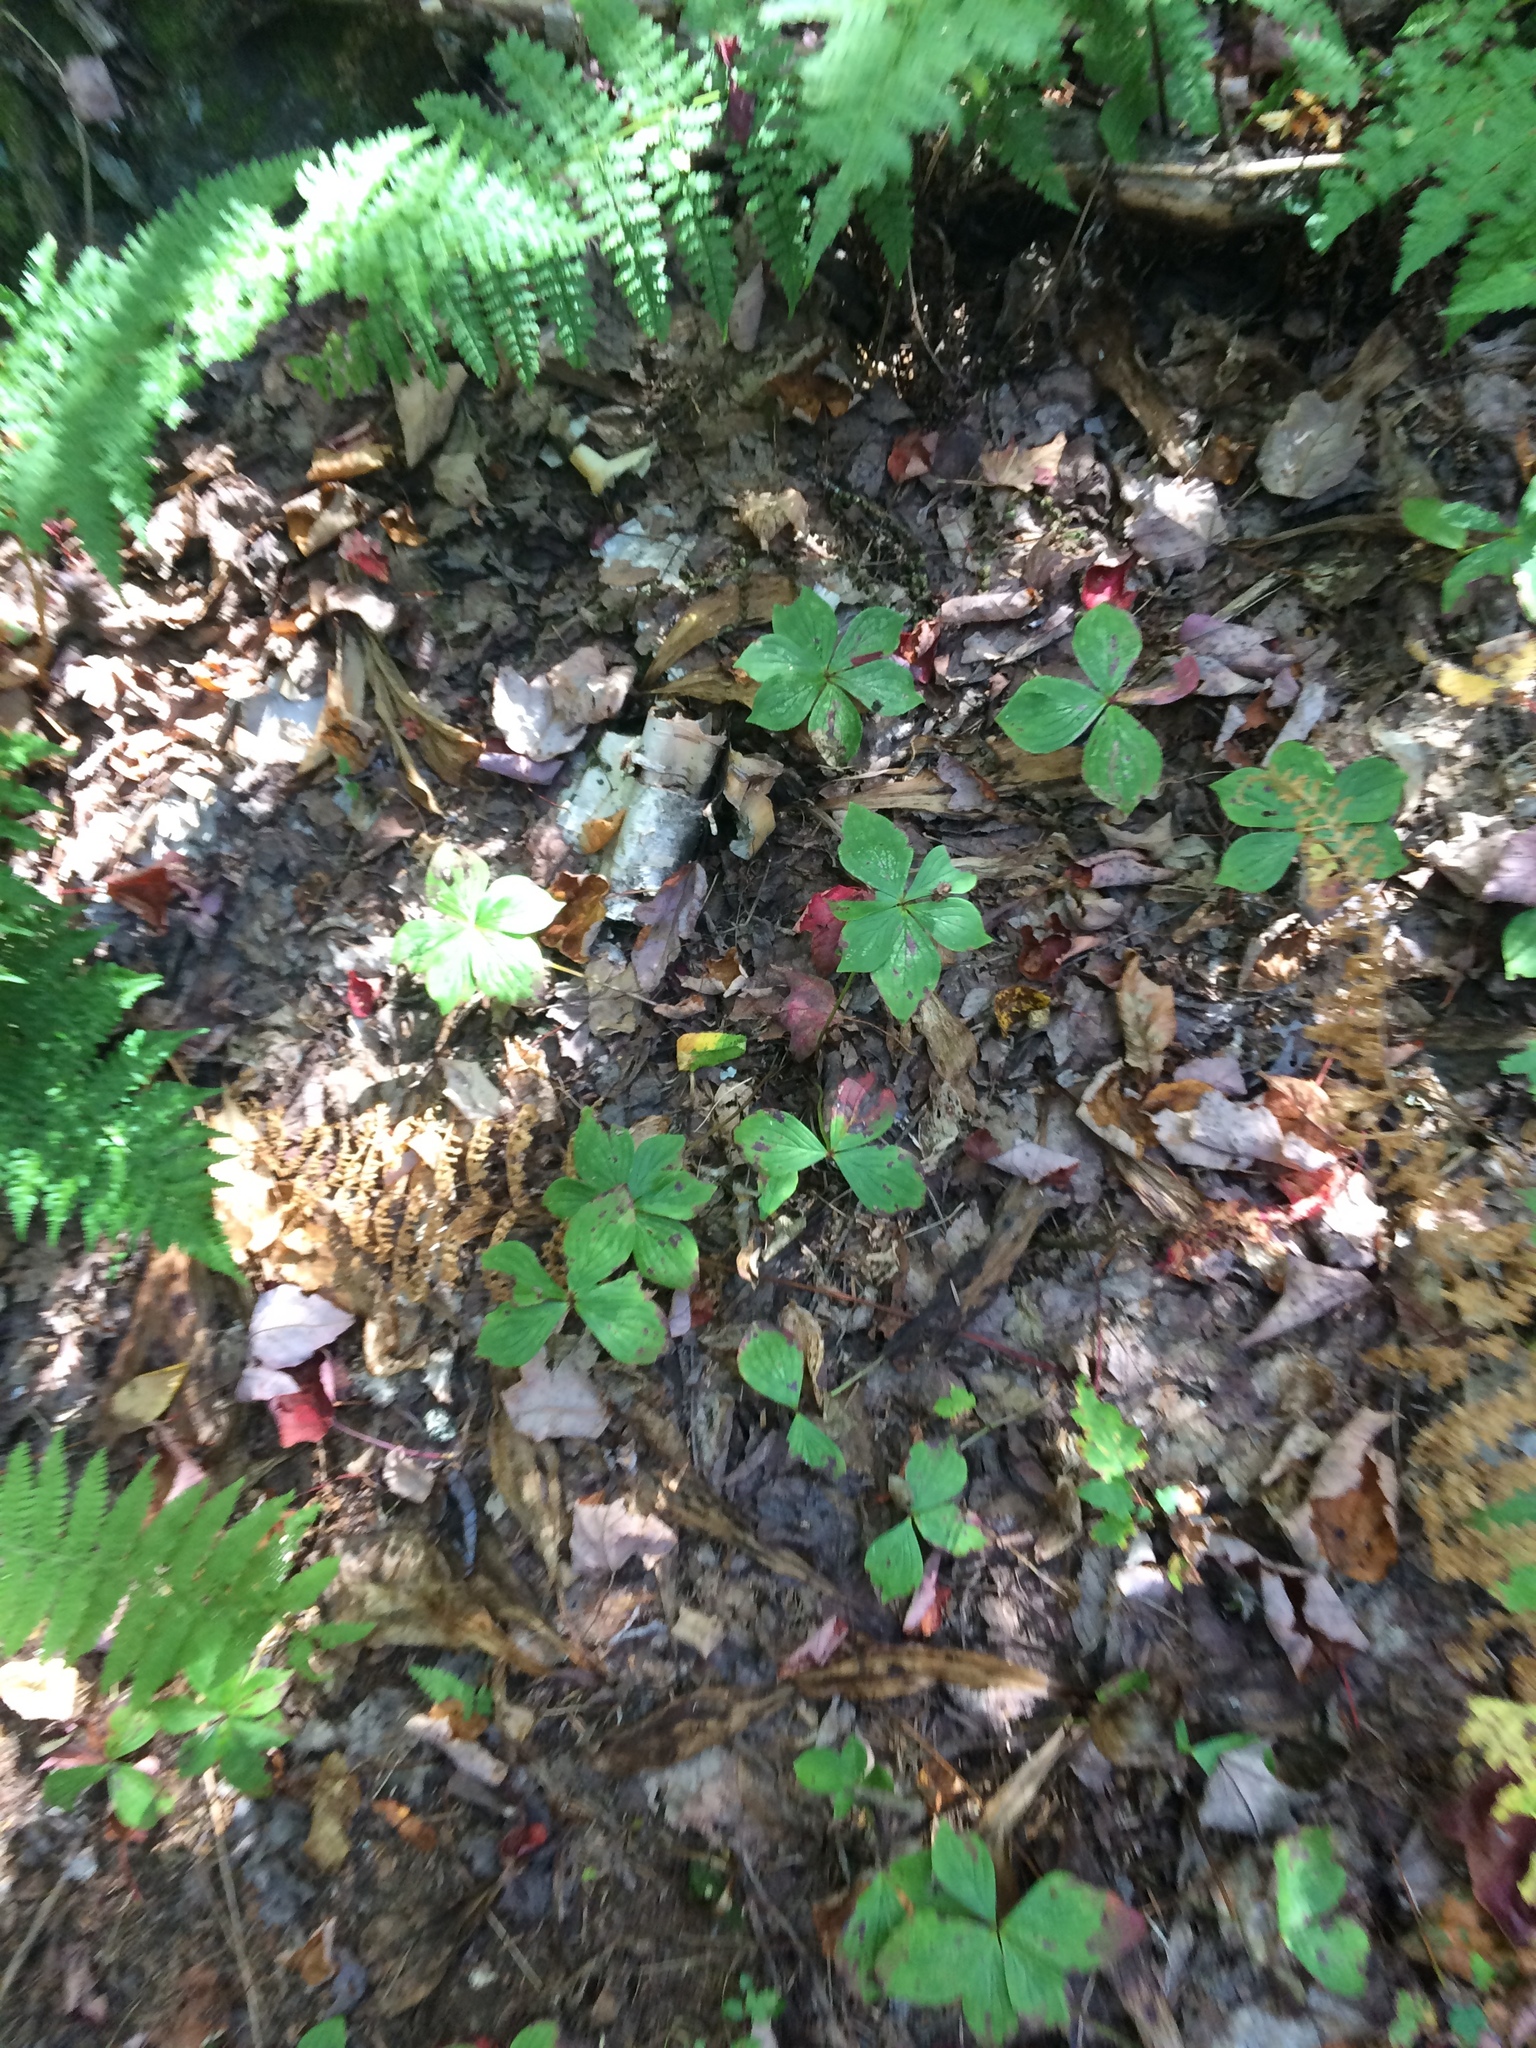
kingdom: Plantae
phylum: Tracheophyta
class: Magnoliopsida
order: Cornales
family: Cornaceae
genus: Cornus
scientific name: Cornus canadensis
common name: Creeping dogwood
